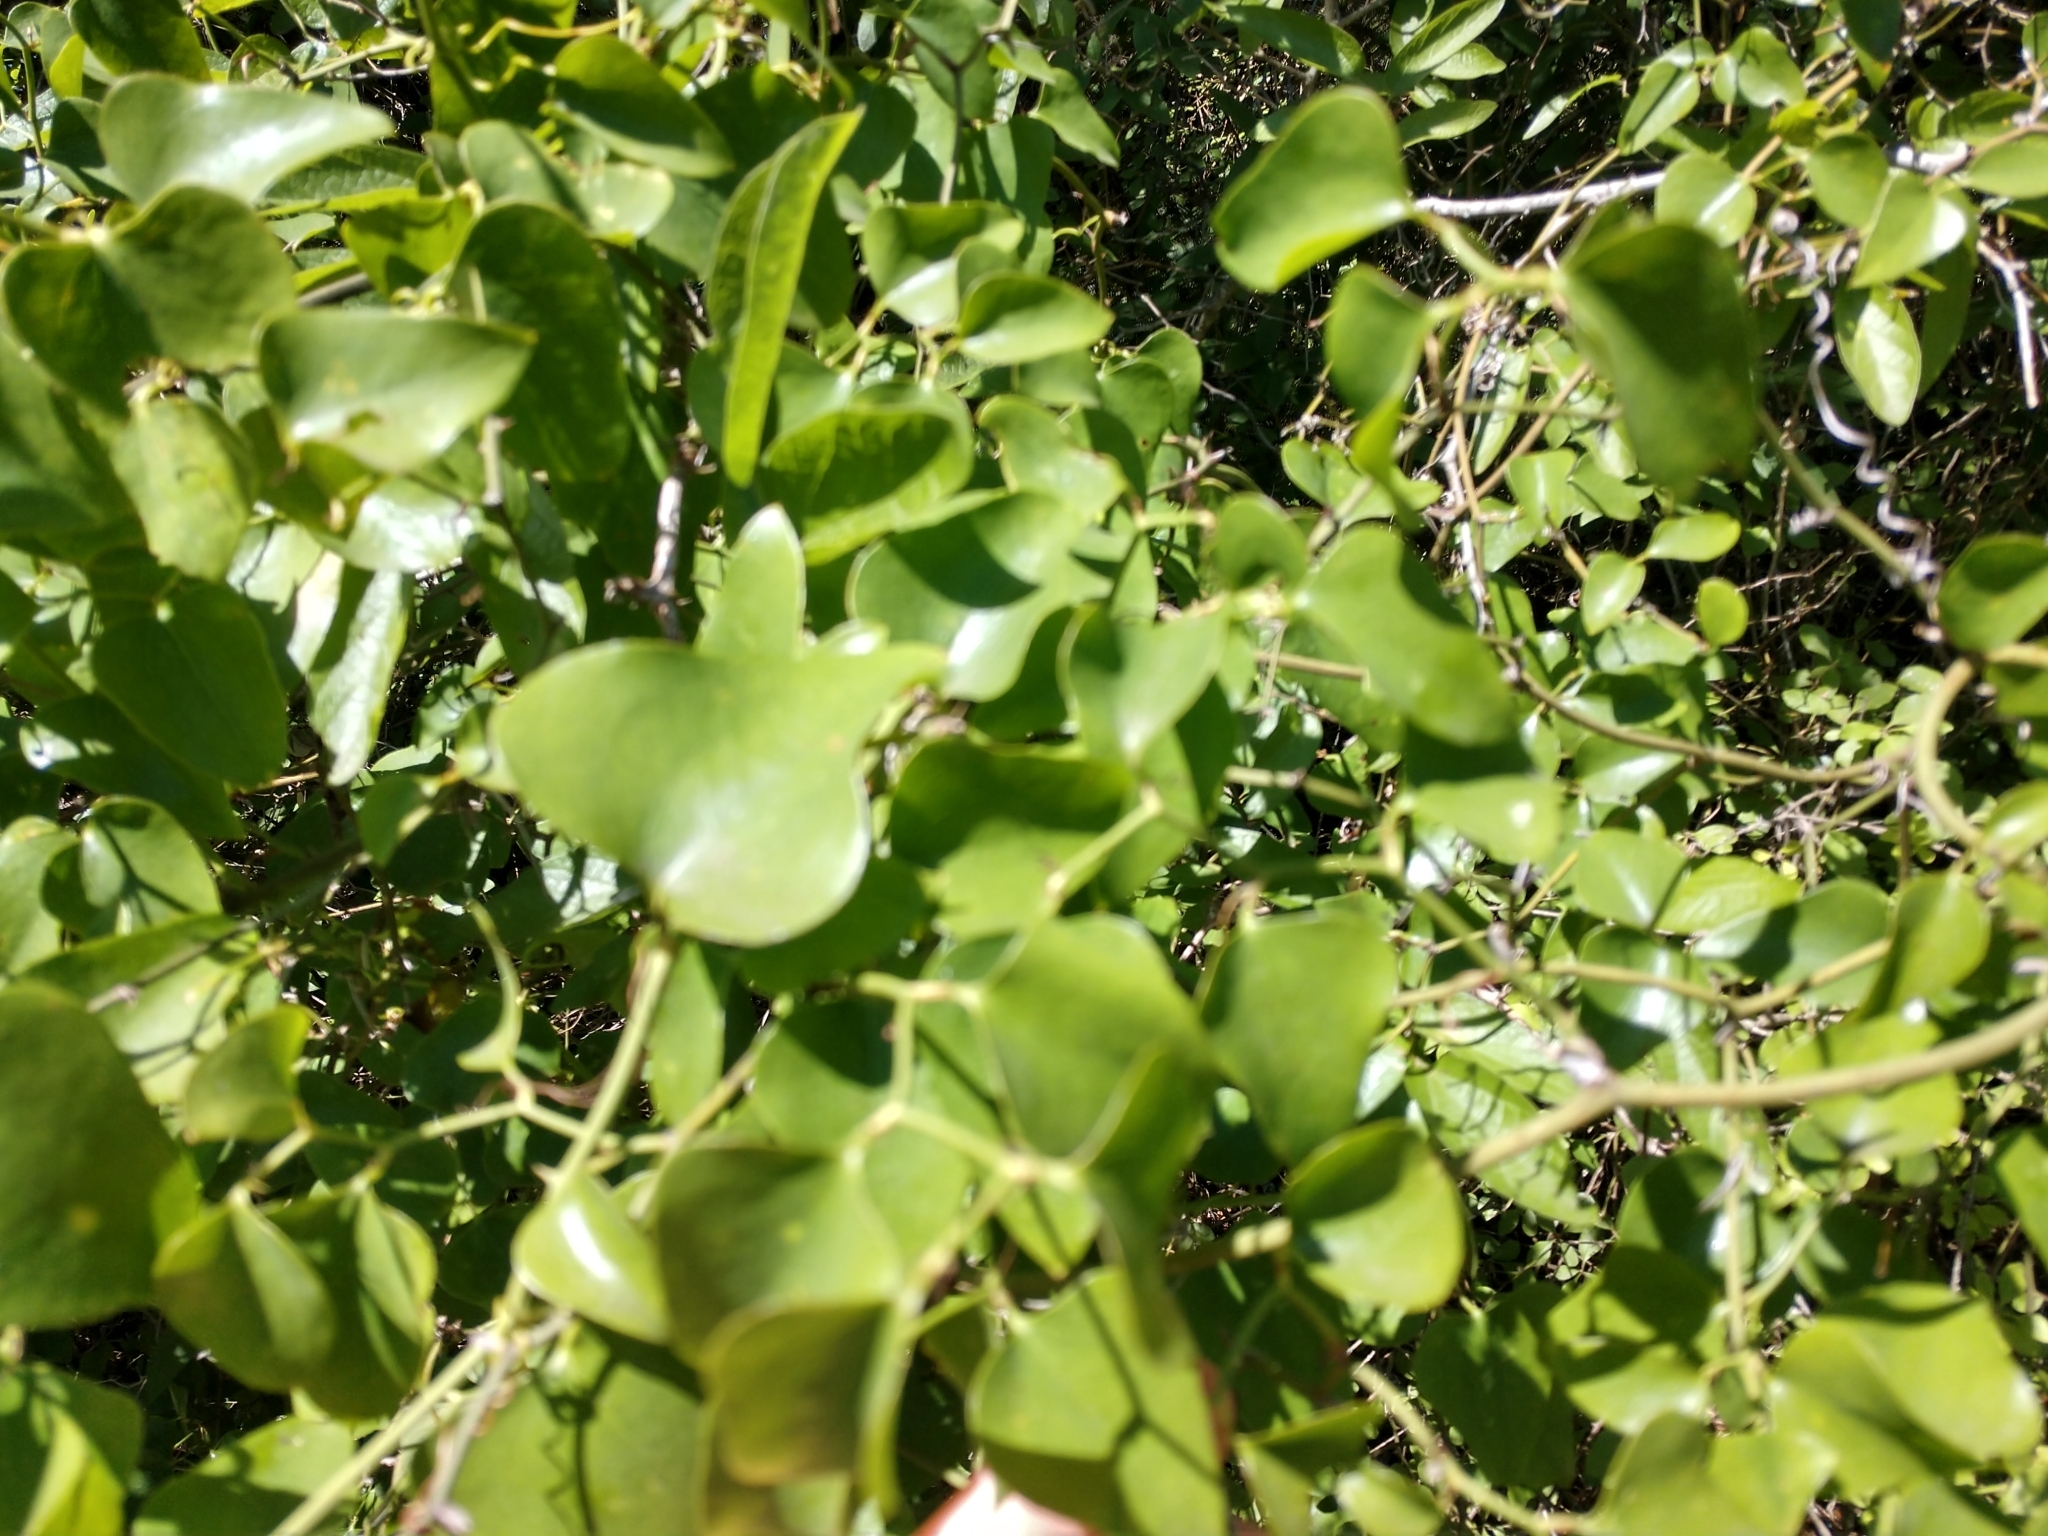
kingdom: Plantae
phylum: Tracheophyta
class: Liliopsida
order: Liliales
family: Smilacaceae
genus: Smilax
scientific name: Smilax bona-nox
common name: Catbrier
